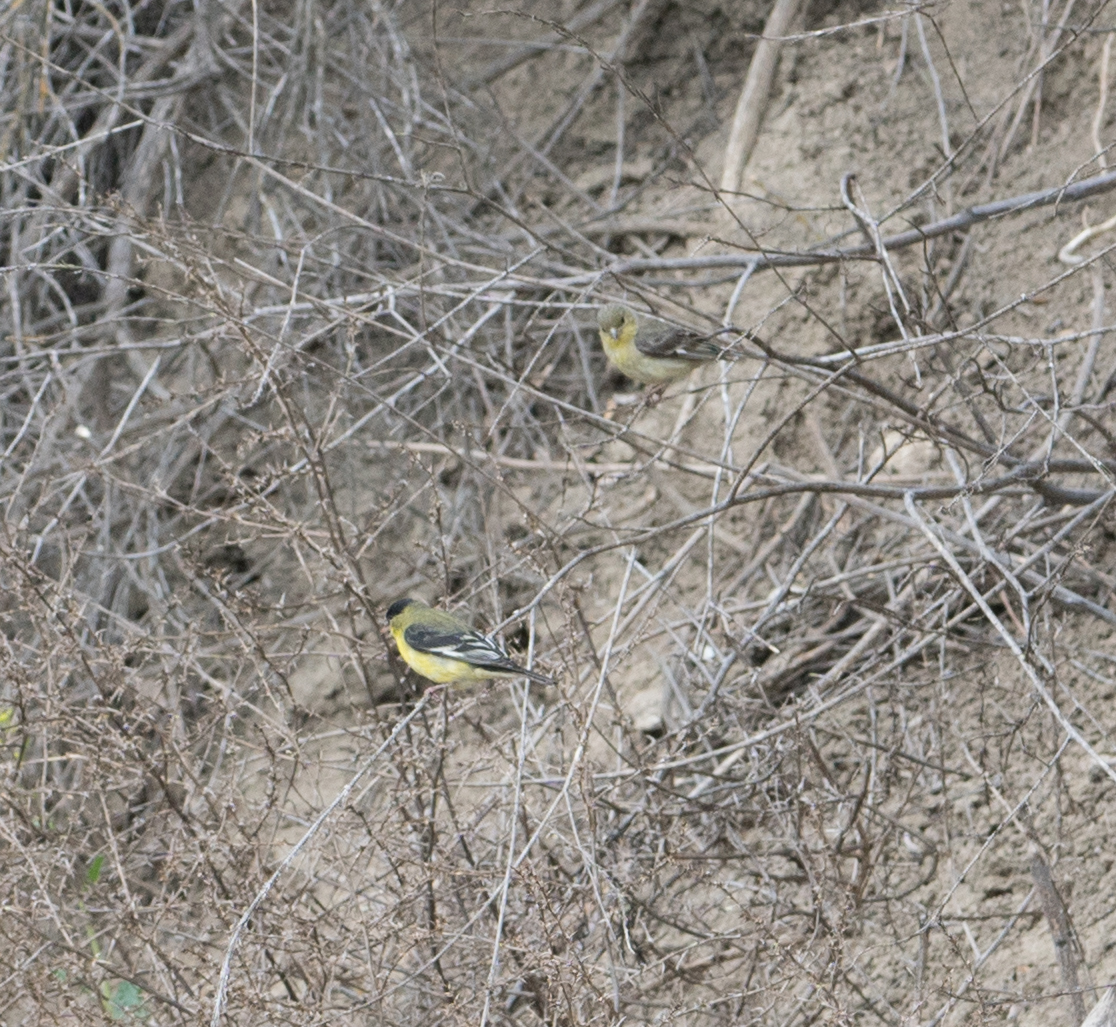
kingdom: Animalia
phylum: Chordata
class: Aves
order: Passeriformes
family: Fringillidae
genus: Spinus
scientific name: Spinus psaltria
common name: Lesser goldfinch
